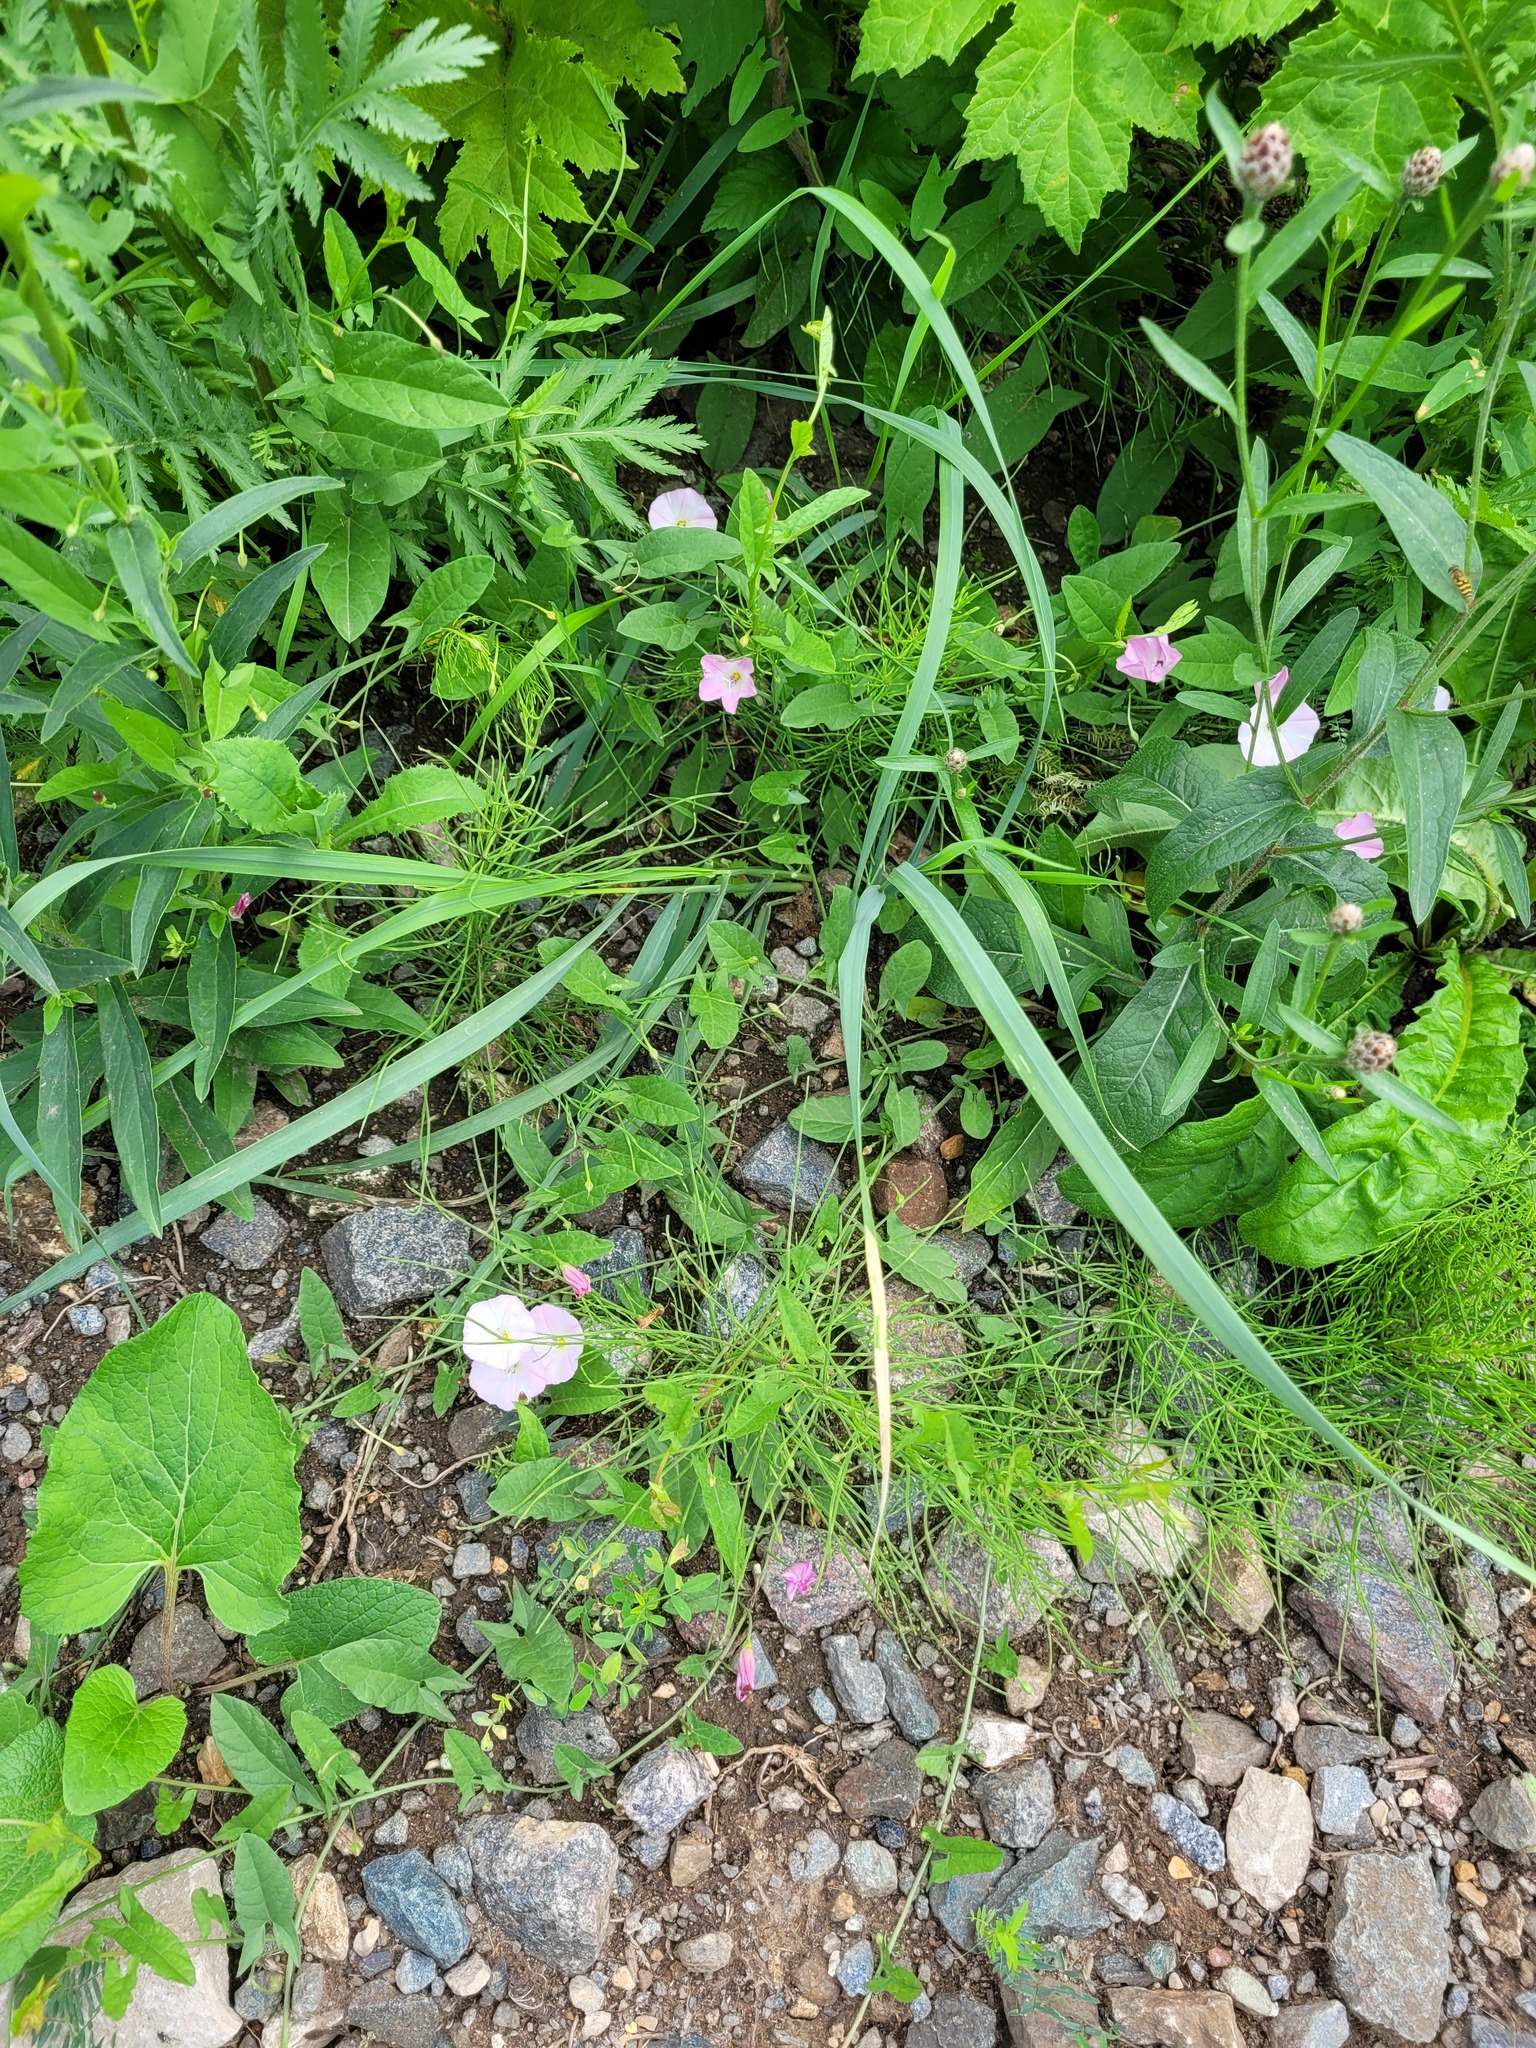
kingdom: Plantae
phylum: Tracheophyta
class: Magnoliopsida
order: Solanales
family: Convolvulaceae
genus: Convolvulus
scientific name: Convolvulus arvensis
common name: Field bindweed
